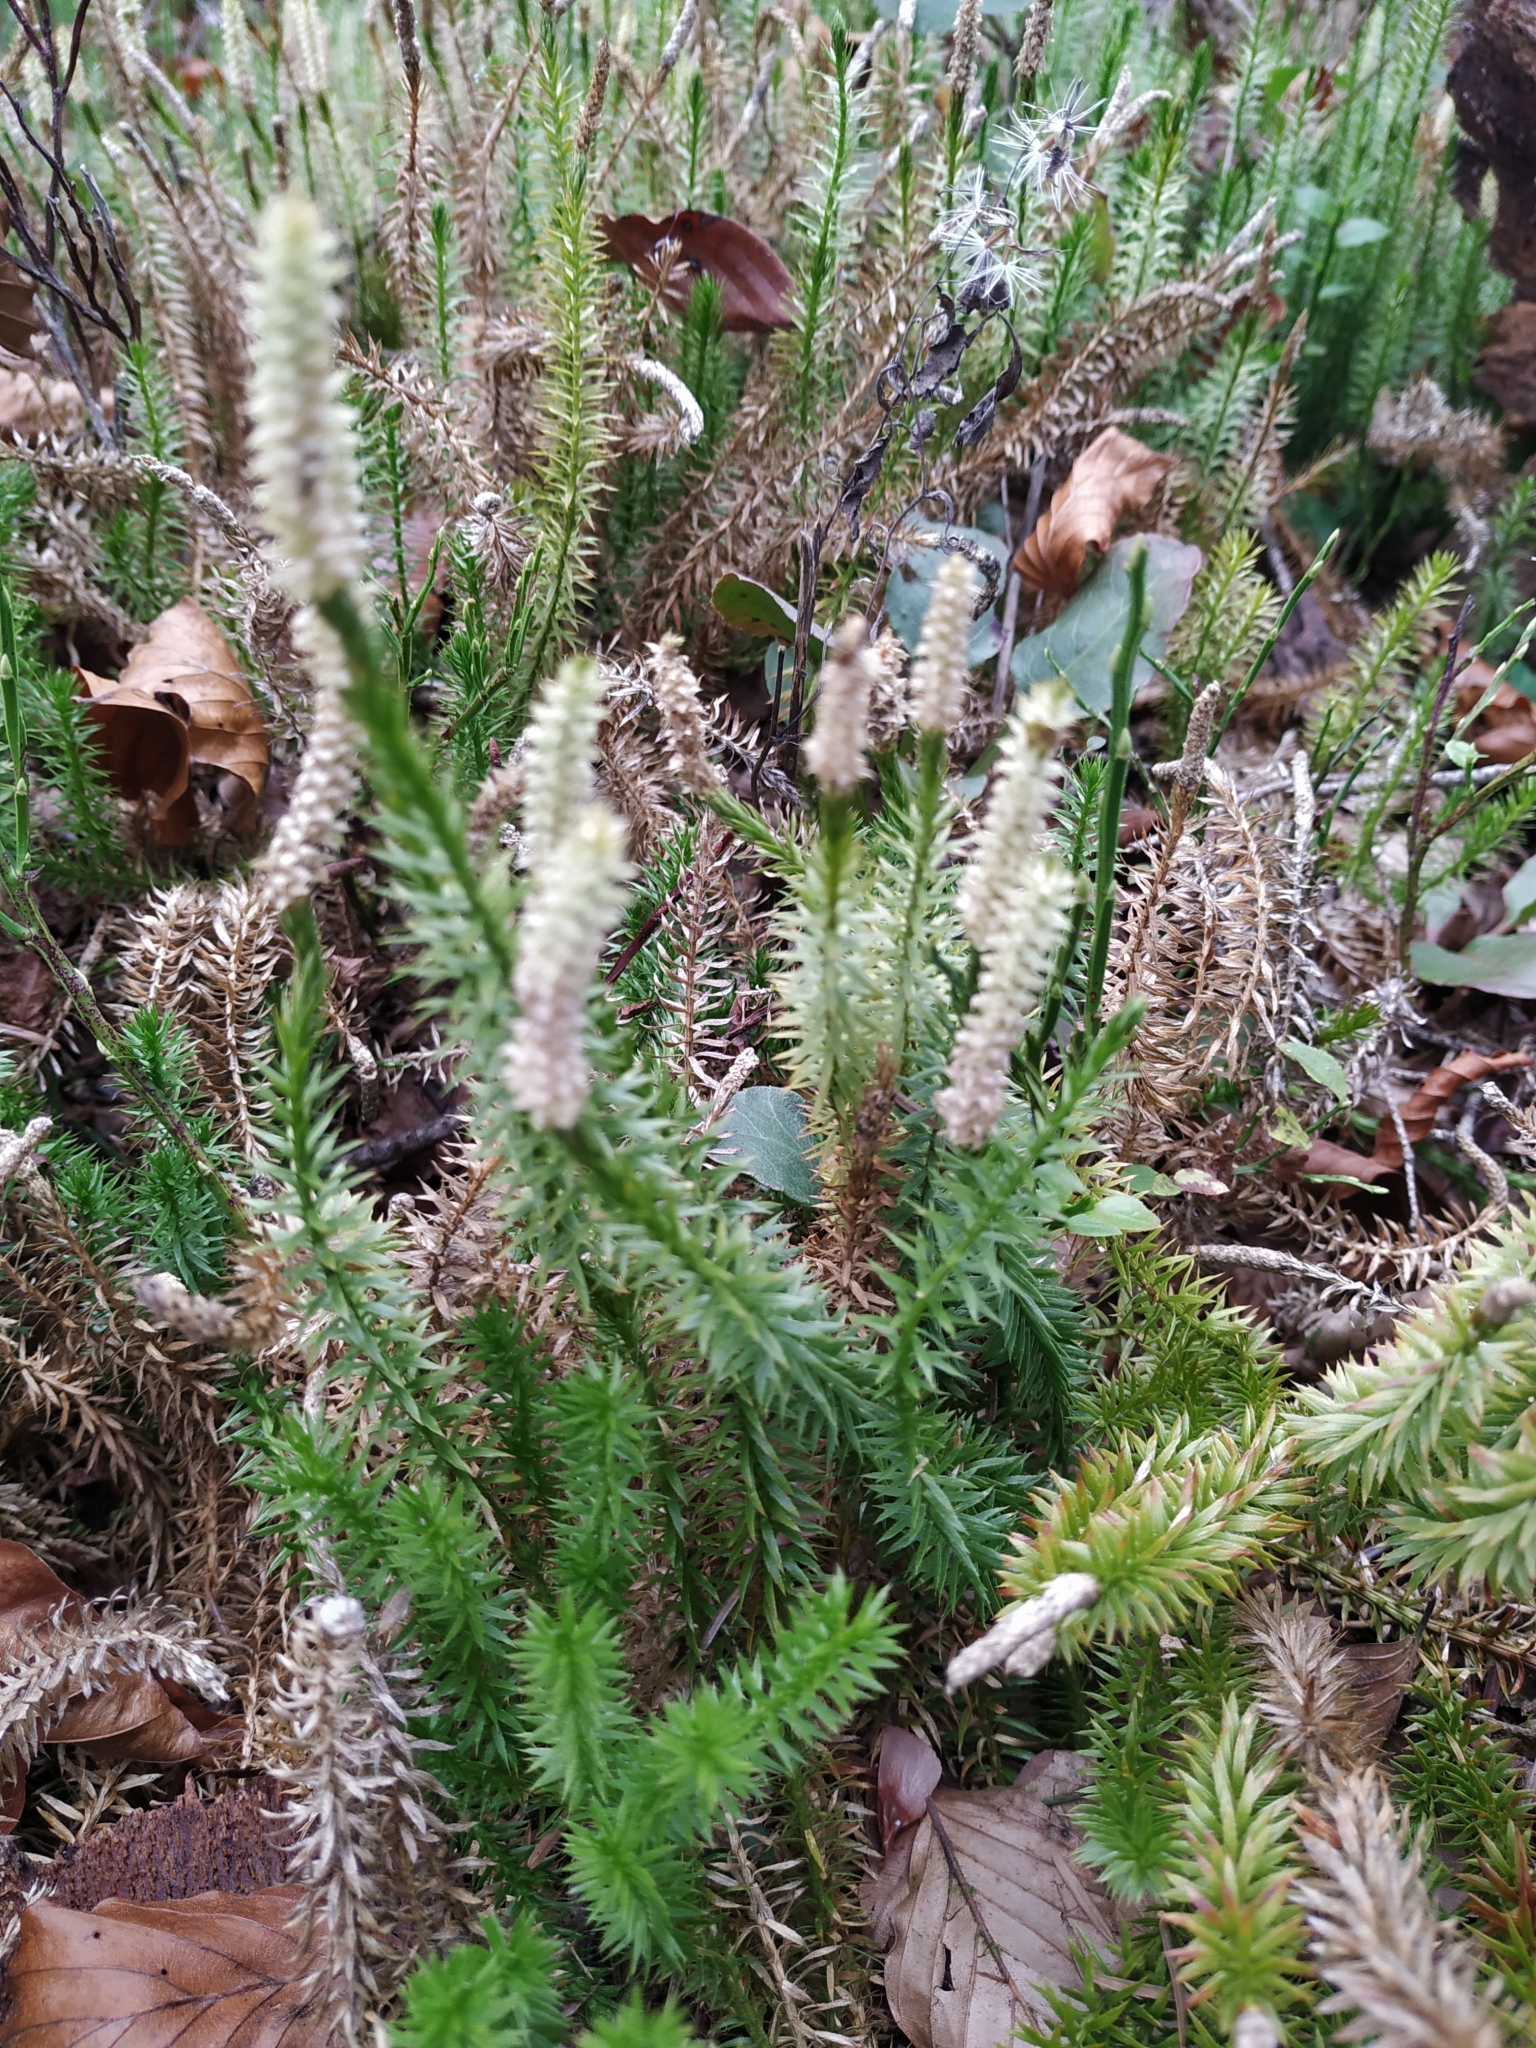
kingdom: Plantae
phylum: Tracheophyta
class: Lycopodiopsida
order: Lycopodiales
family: Lycopodiaceae
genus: Spinulum
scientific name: Spinulum annotinum
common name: Interrupted club-moss
